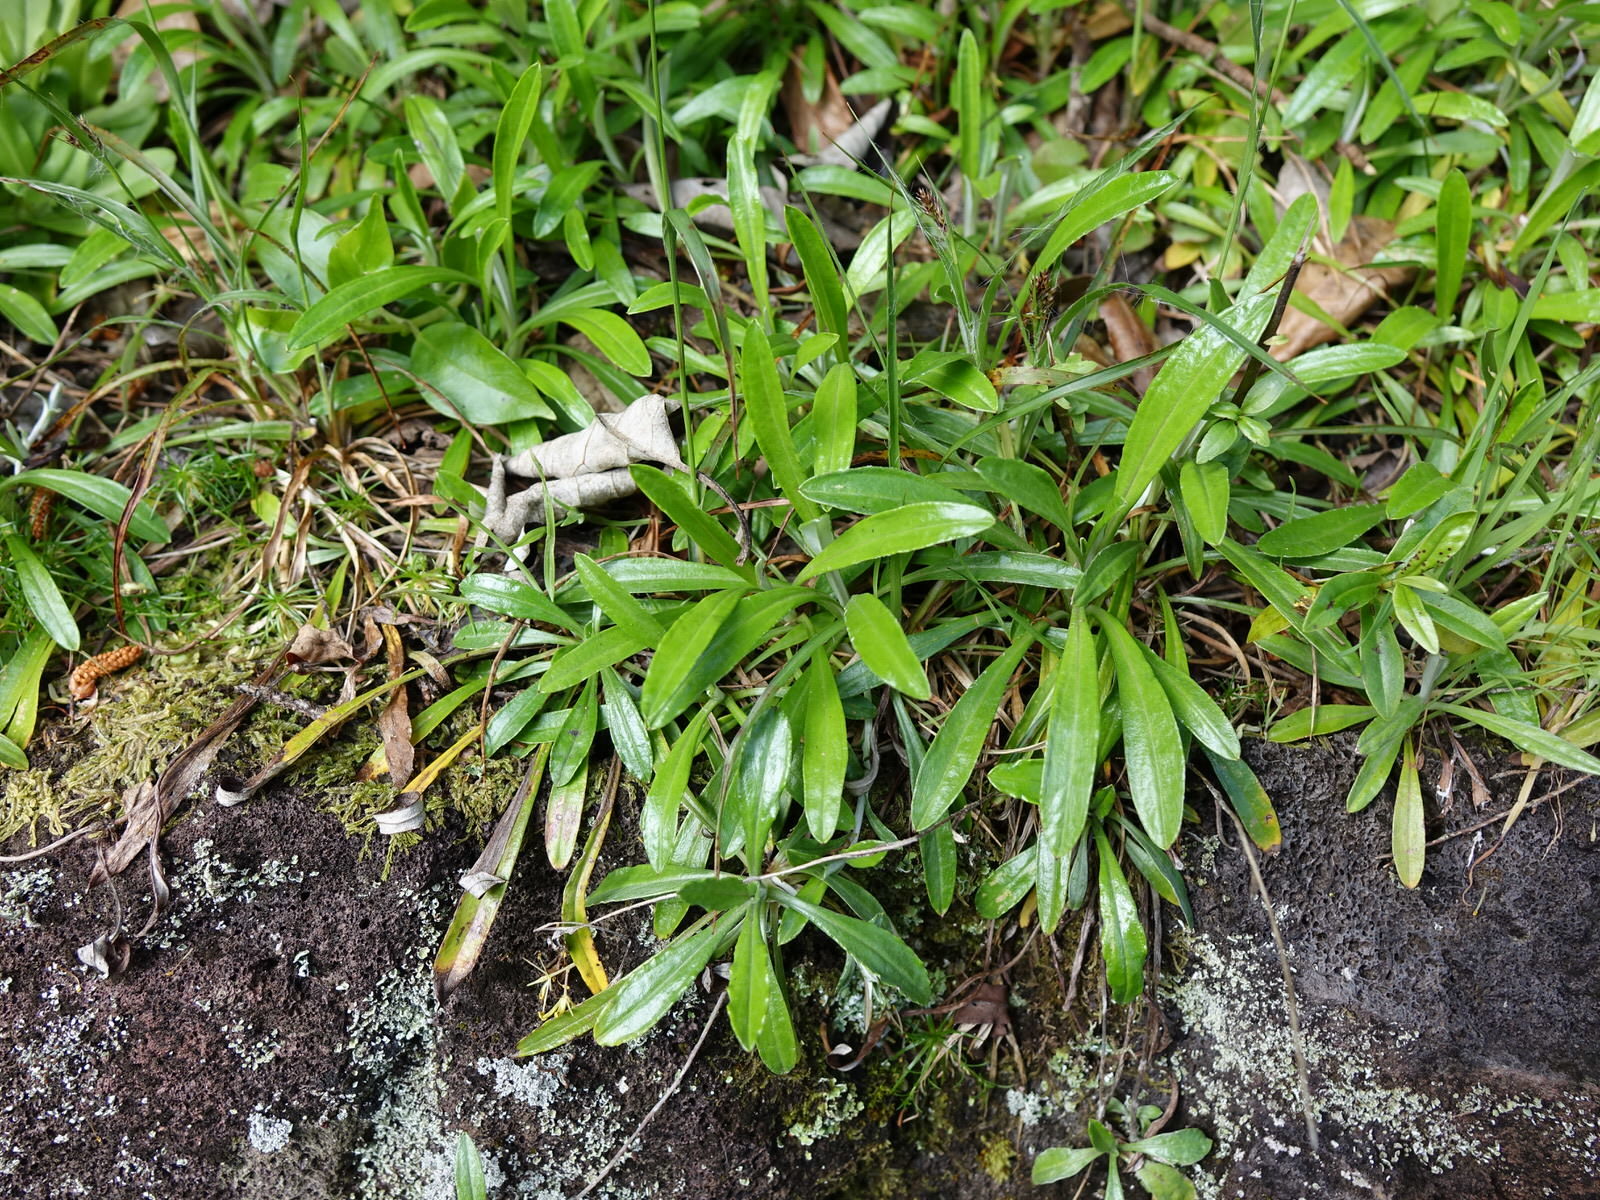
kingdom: Plantae
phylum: Tracheophyta
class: Magnoliopsida
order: Asterales
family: Asteraceae
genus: Euchiton
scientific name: Euchiton japonicus
